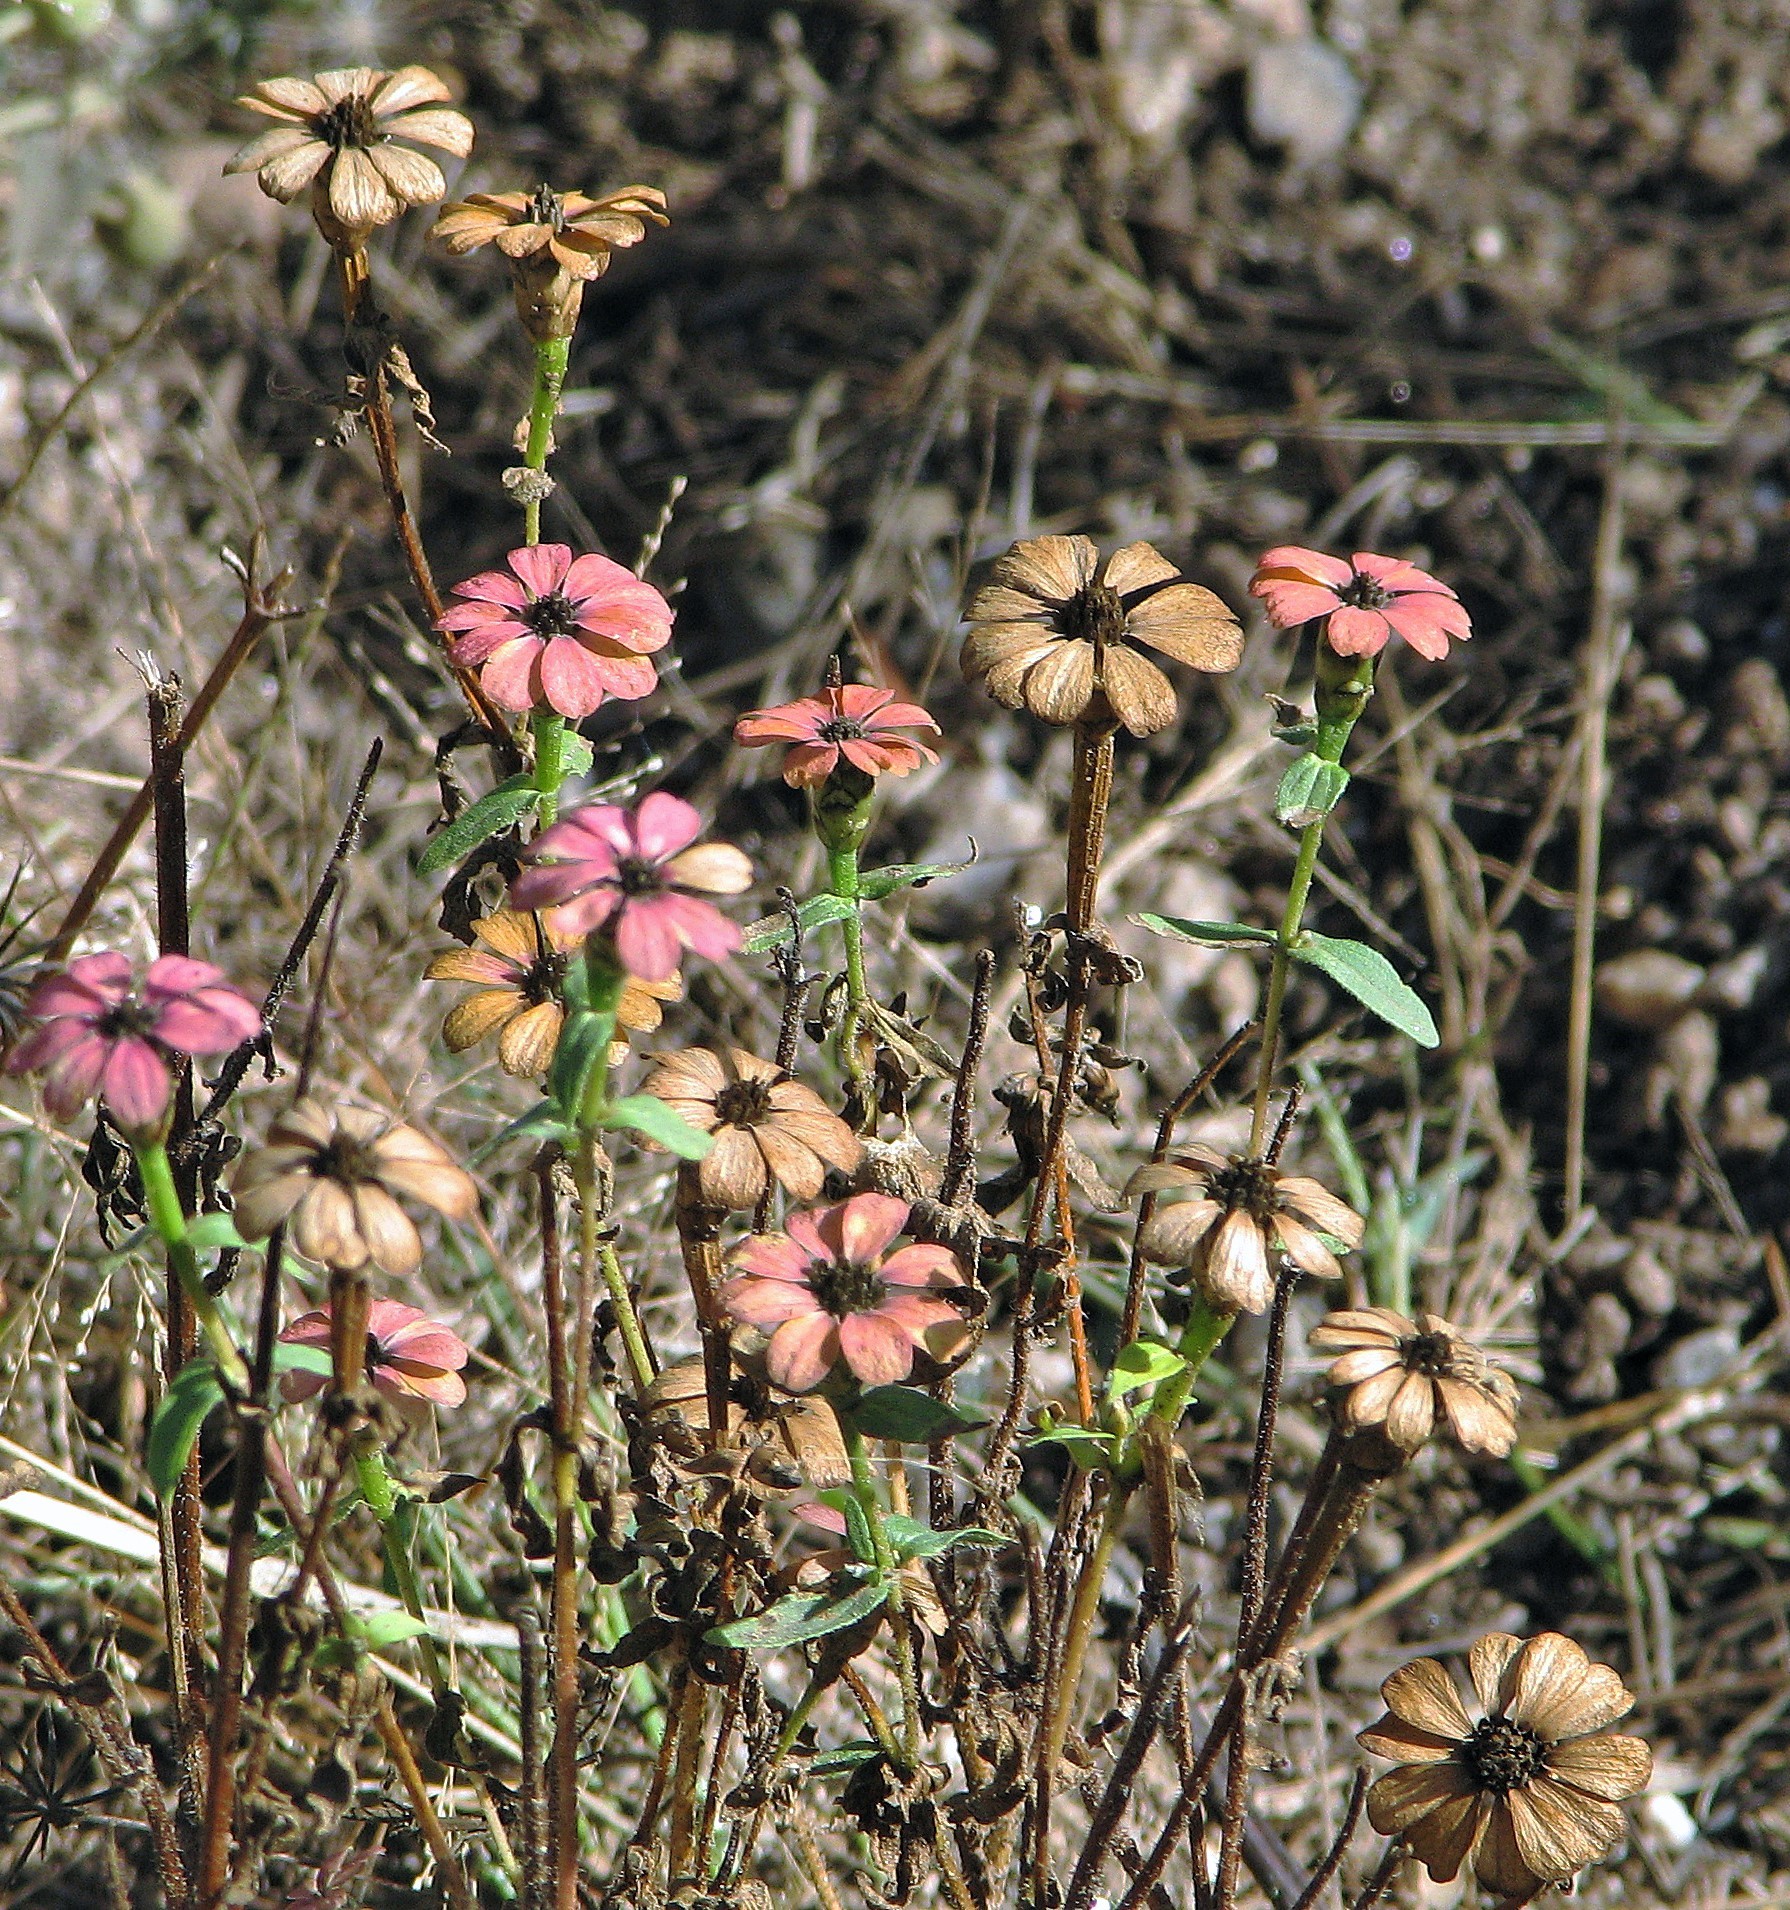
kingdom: Plantae
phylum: Tracheophyta
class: Magnoliopsida
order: Asterales
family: Asteraceae
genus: Zinnia
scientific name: Zinnia peruviana
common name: Peruvian zinnia
